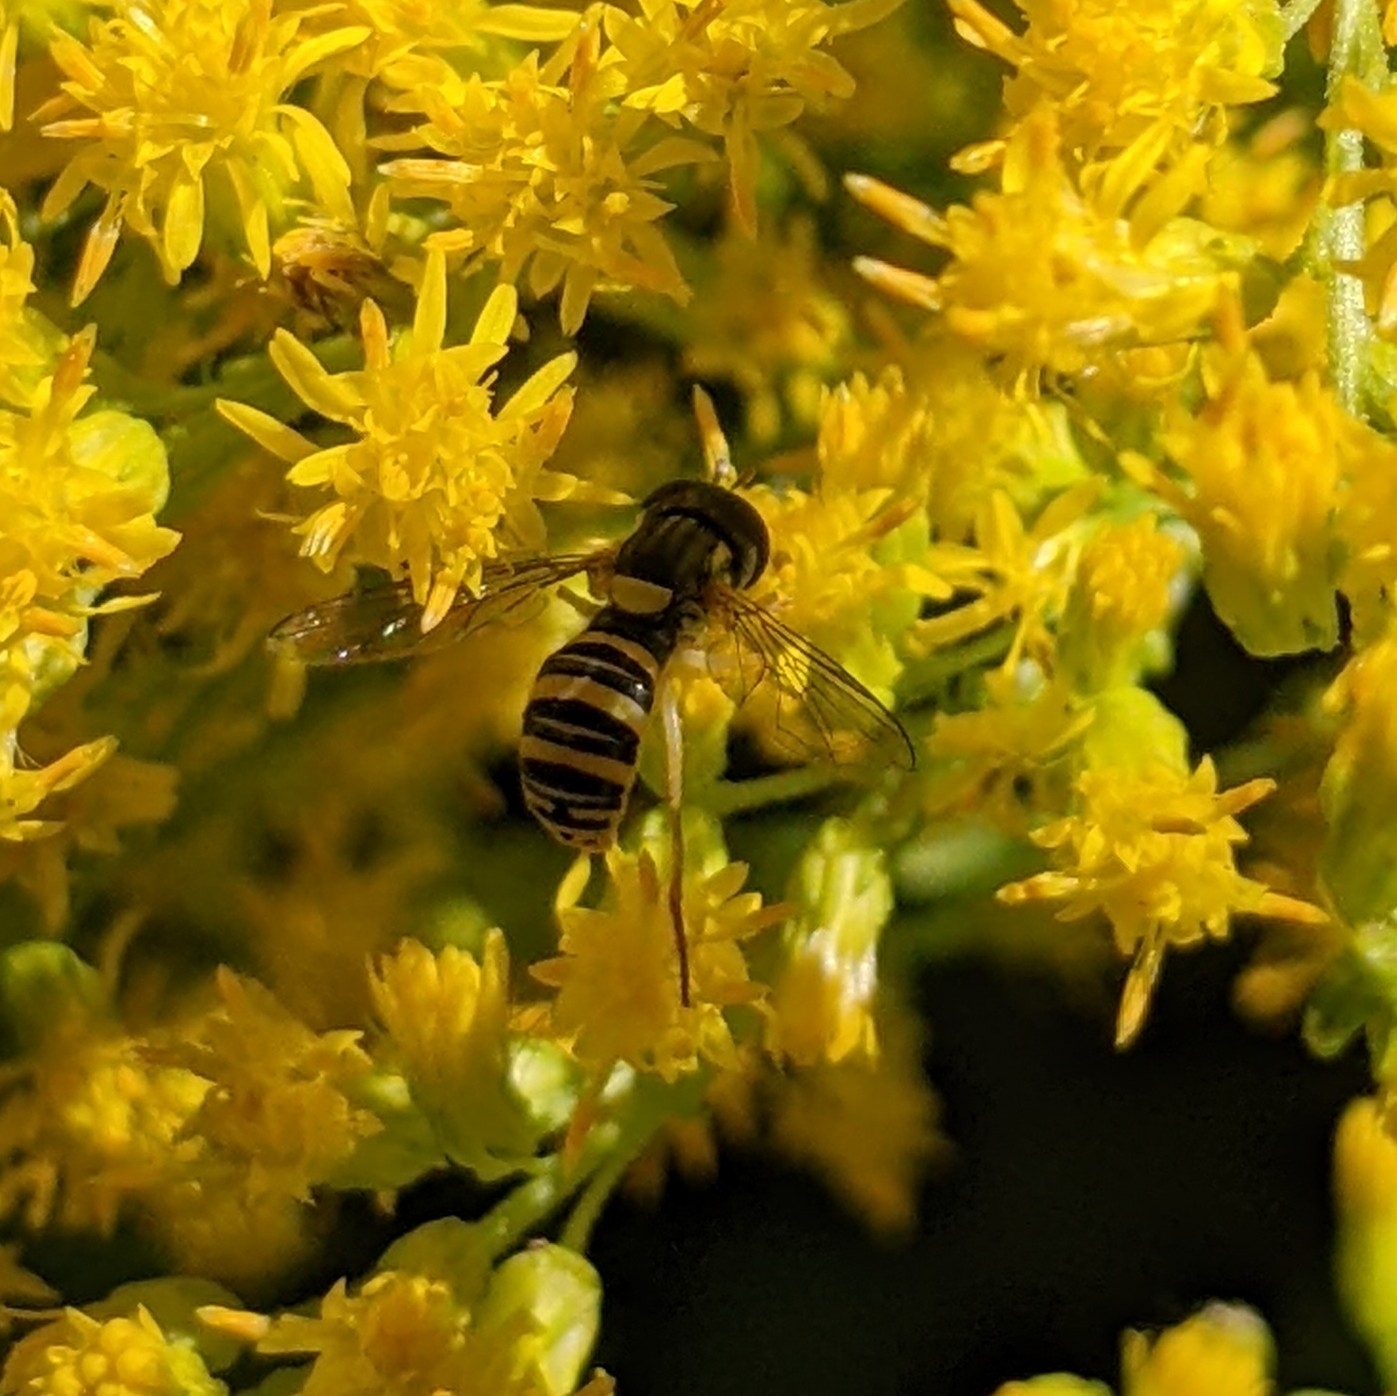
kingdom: Animalia
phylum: Arthropoda
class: Insecta
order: Diptera
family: Syrphidae
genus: Sphaerophoria
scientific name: Sphaerophoria contigua
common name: Tufted globetail
